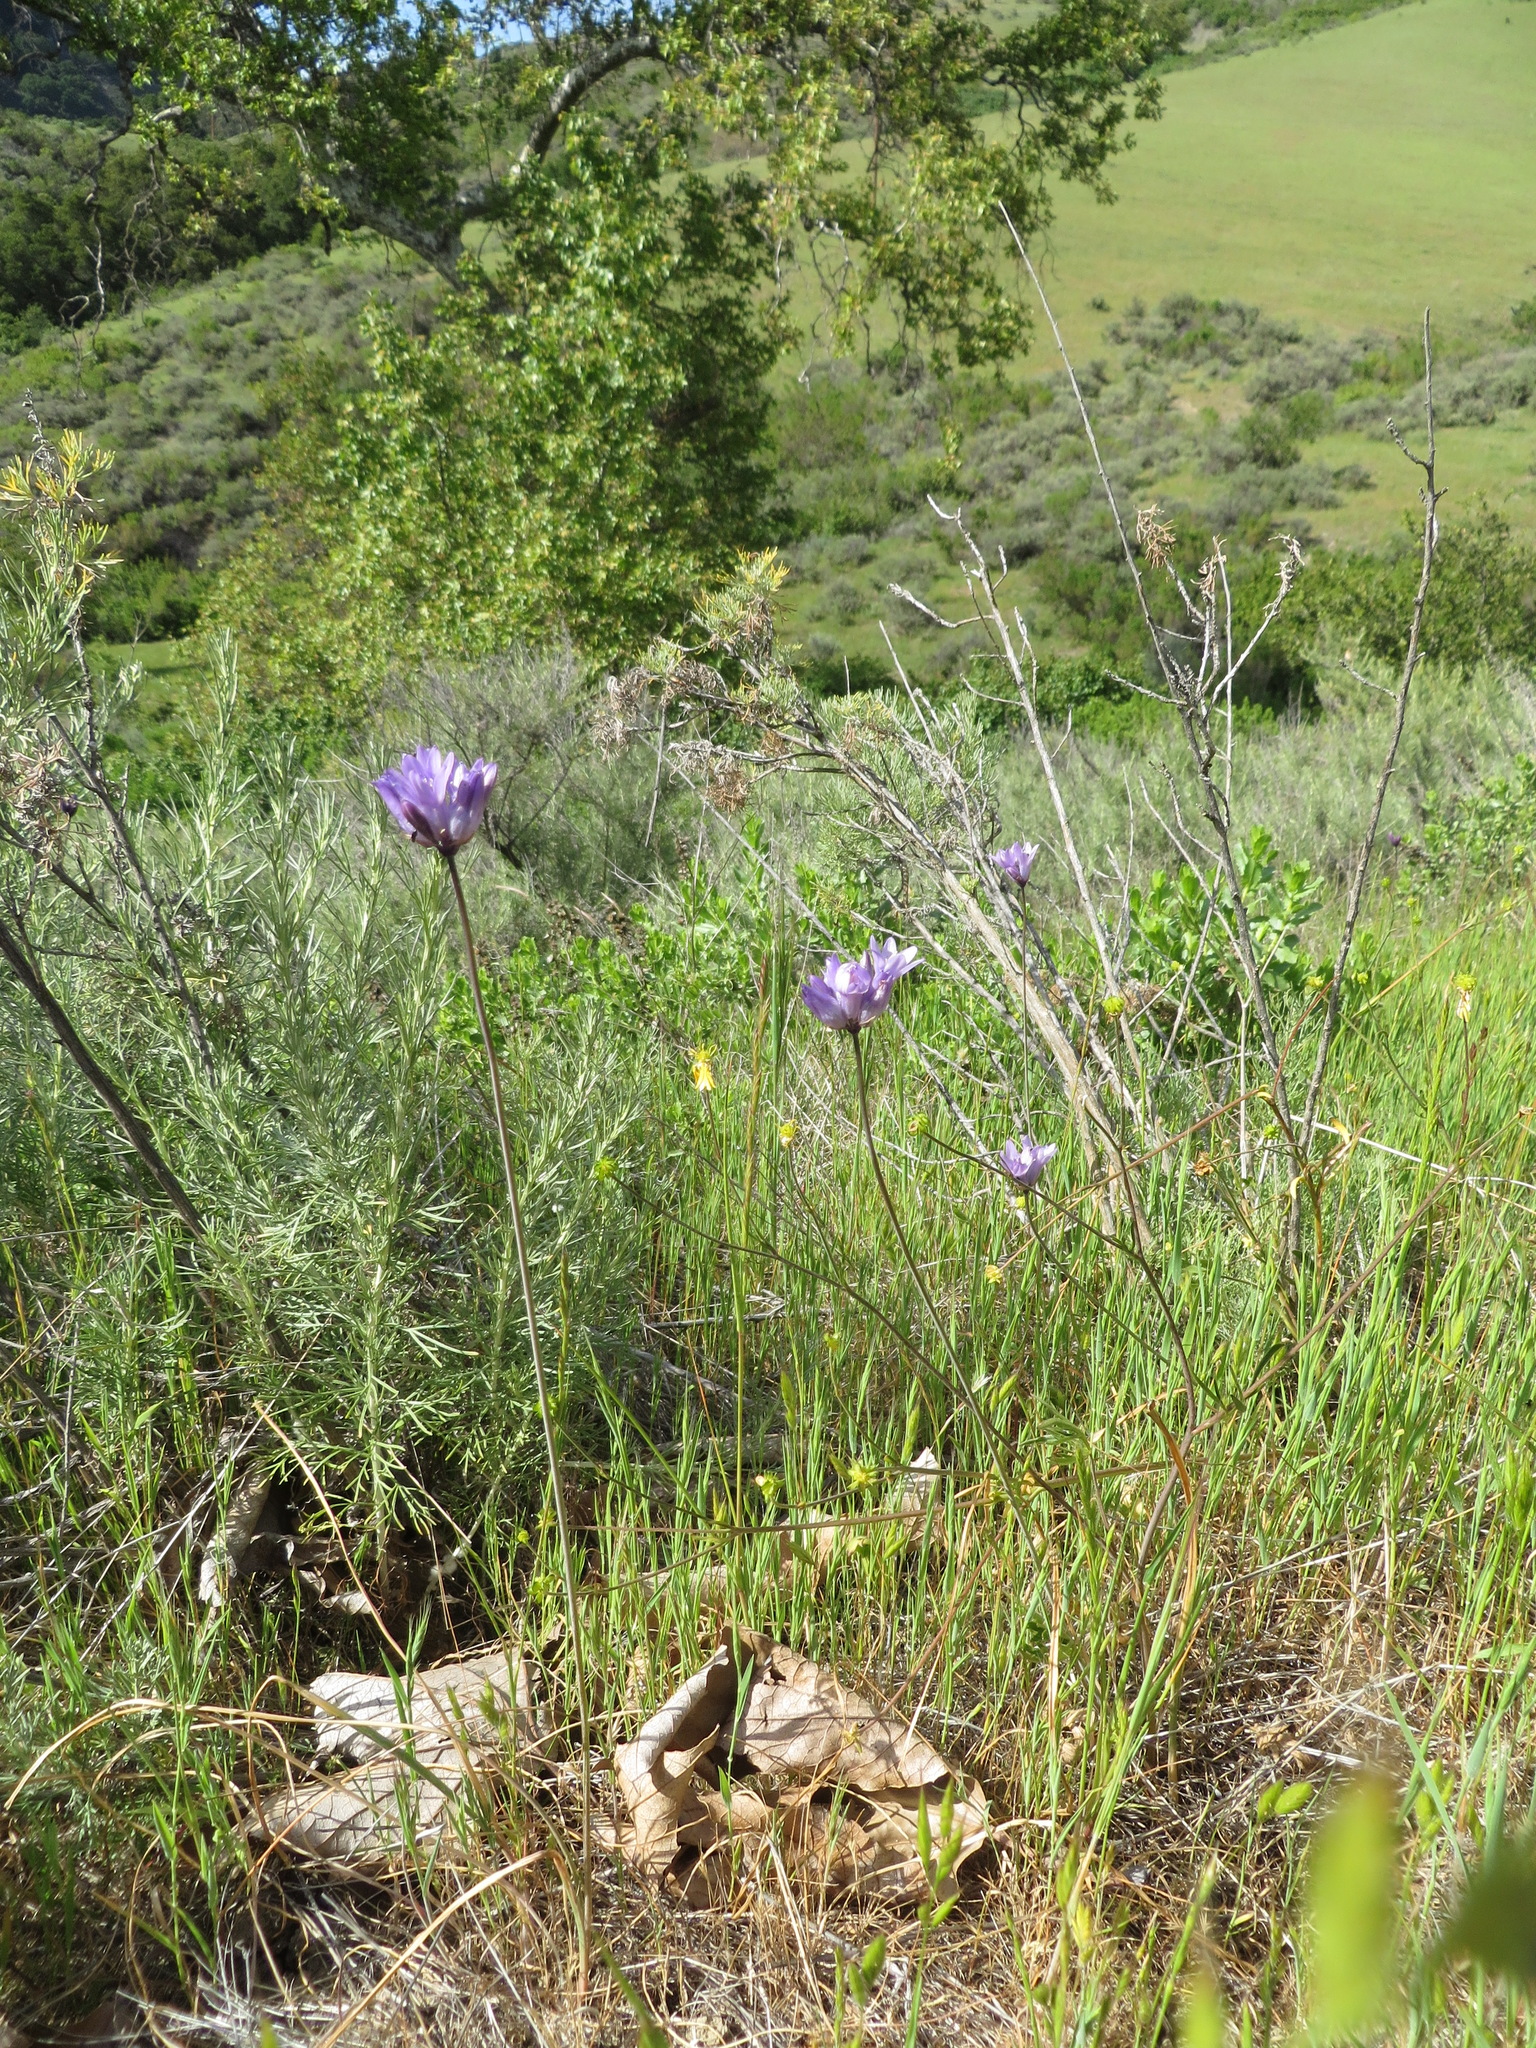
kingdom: Plantae
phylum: Tracheophyta
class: Liliopsida
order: Asparagales
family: Asparagaceae
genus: Dipterostemon
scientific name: Dipterostemon capitatus
